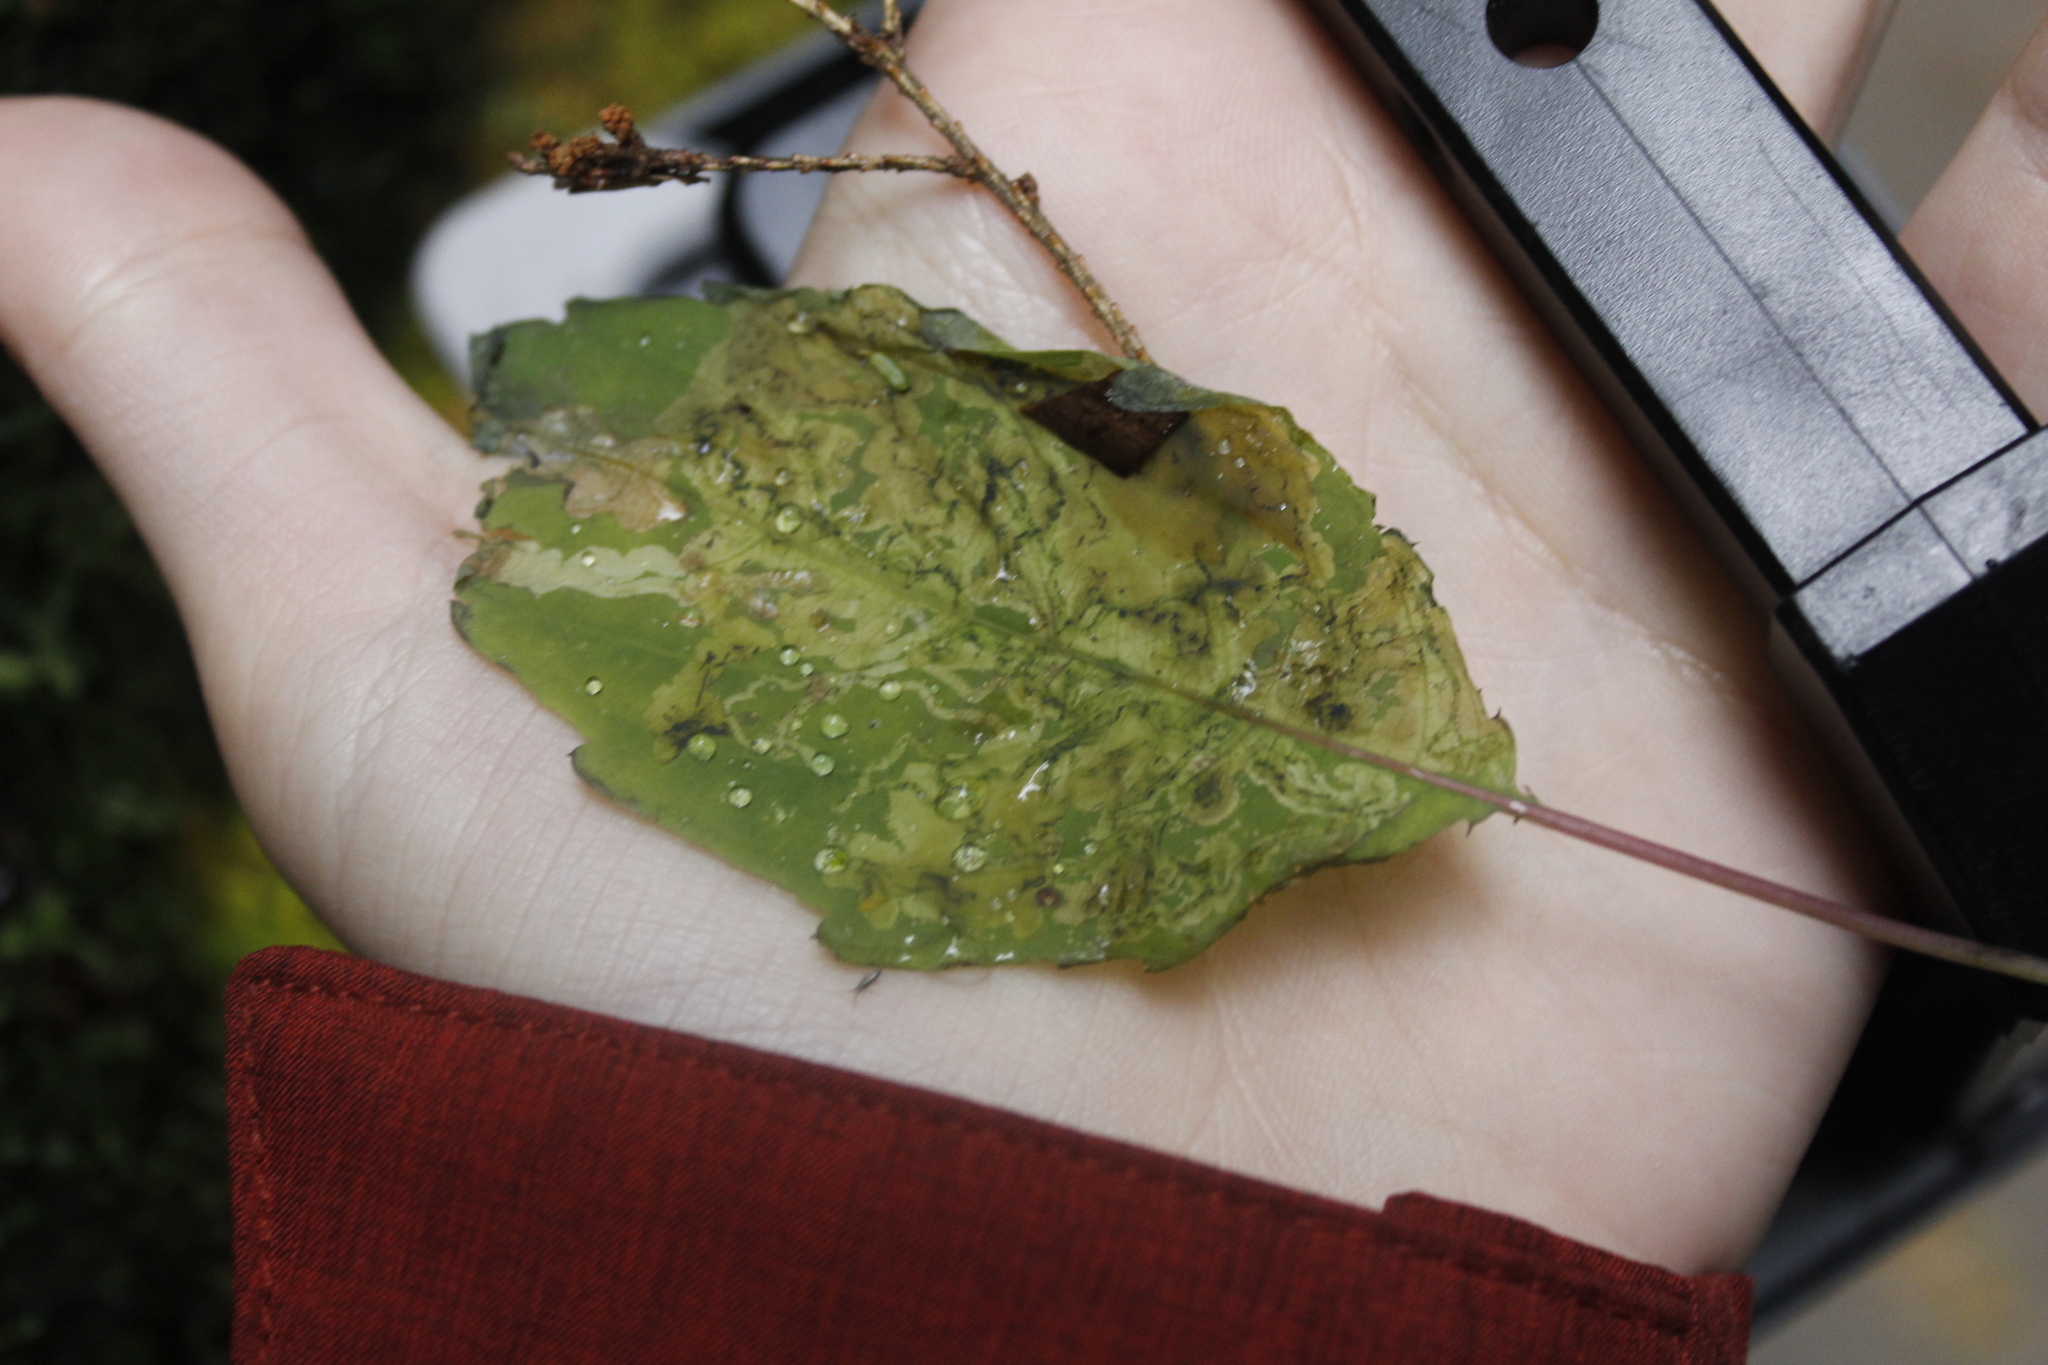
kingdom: Animalia
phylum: Arthropoda
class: Insecta
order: Diptera
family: Agromyzidae
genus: Phytoliriomyza
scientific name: Phytoliriomyza melampyga
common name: Jewelweed leaf-miner fly
